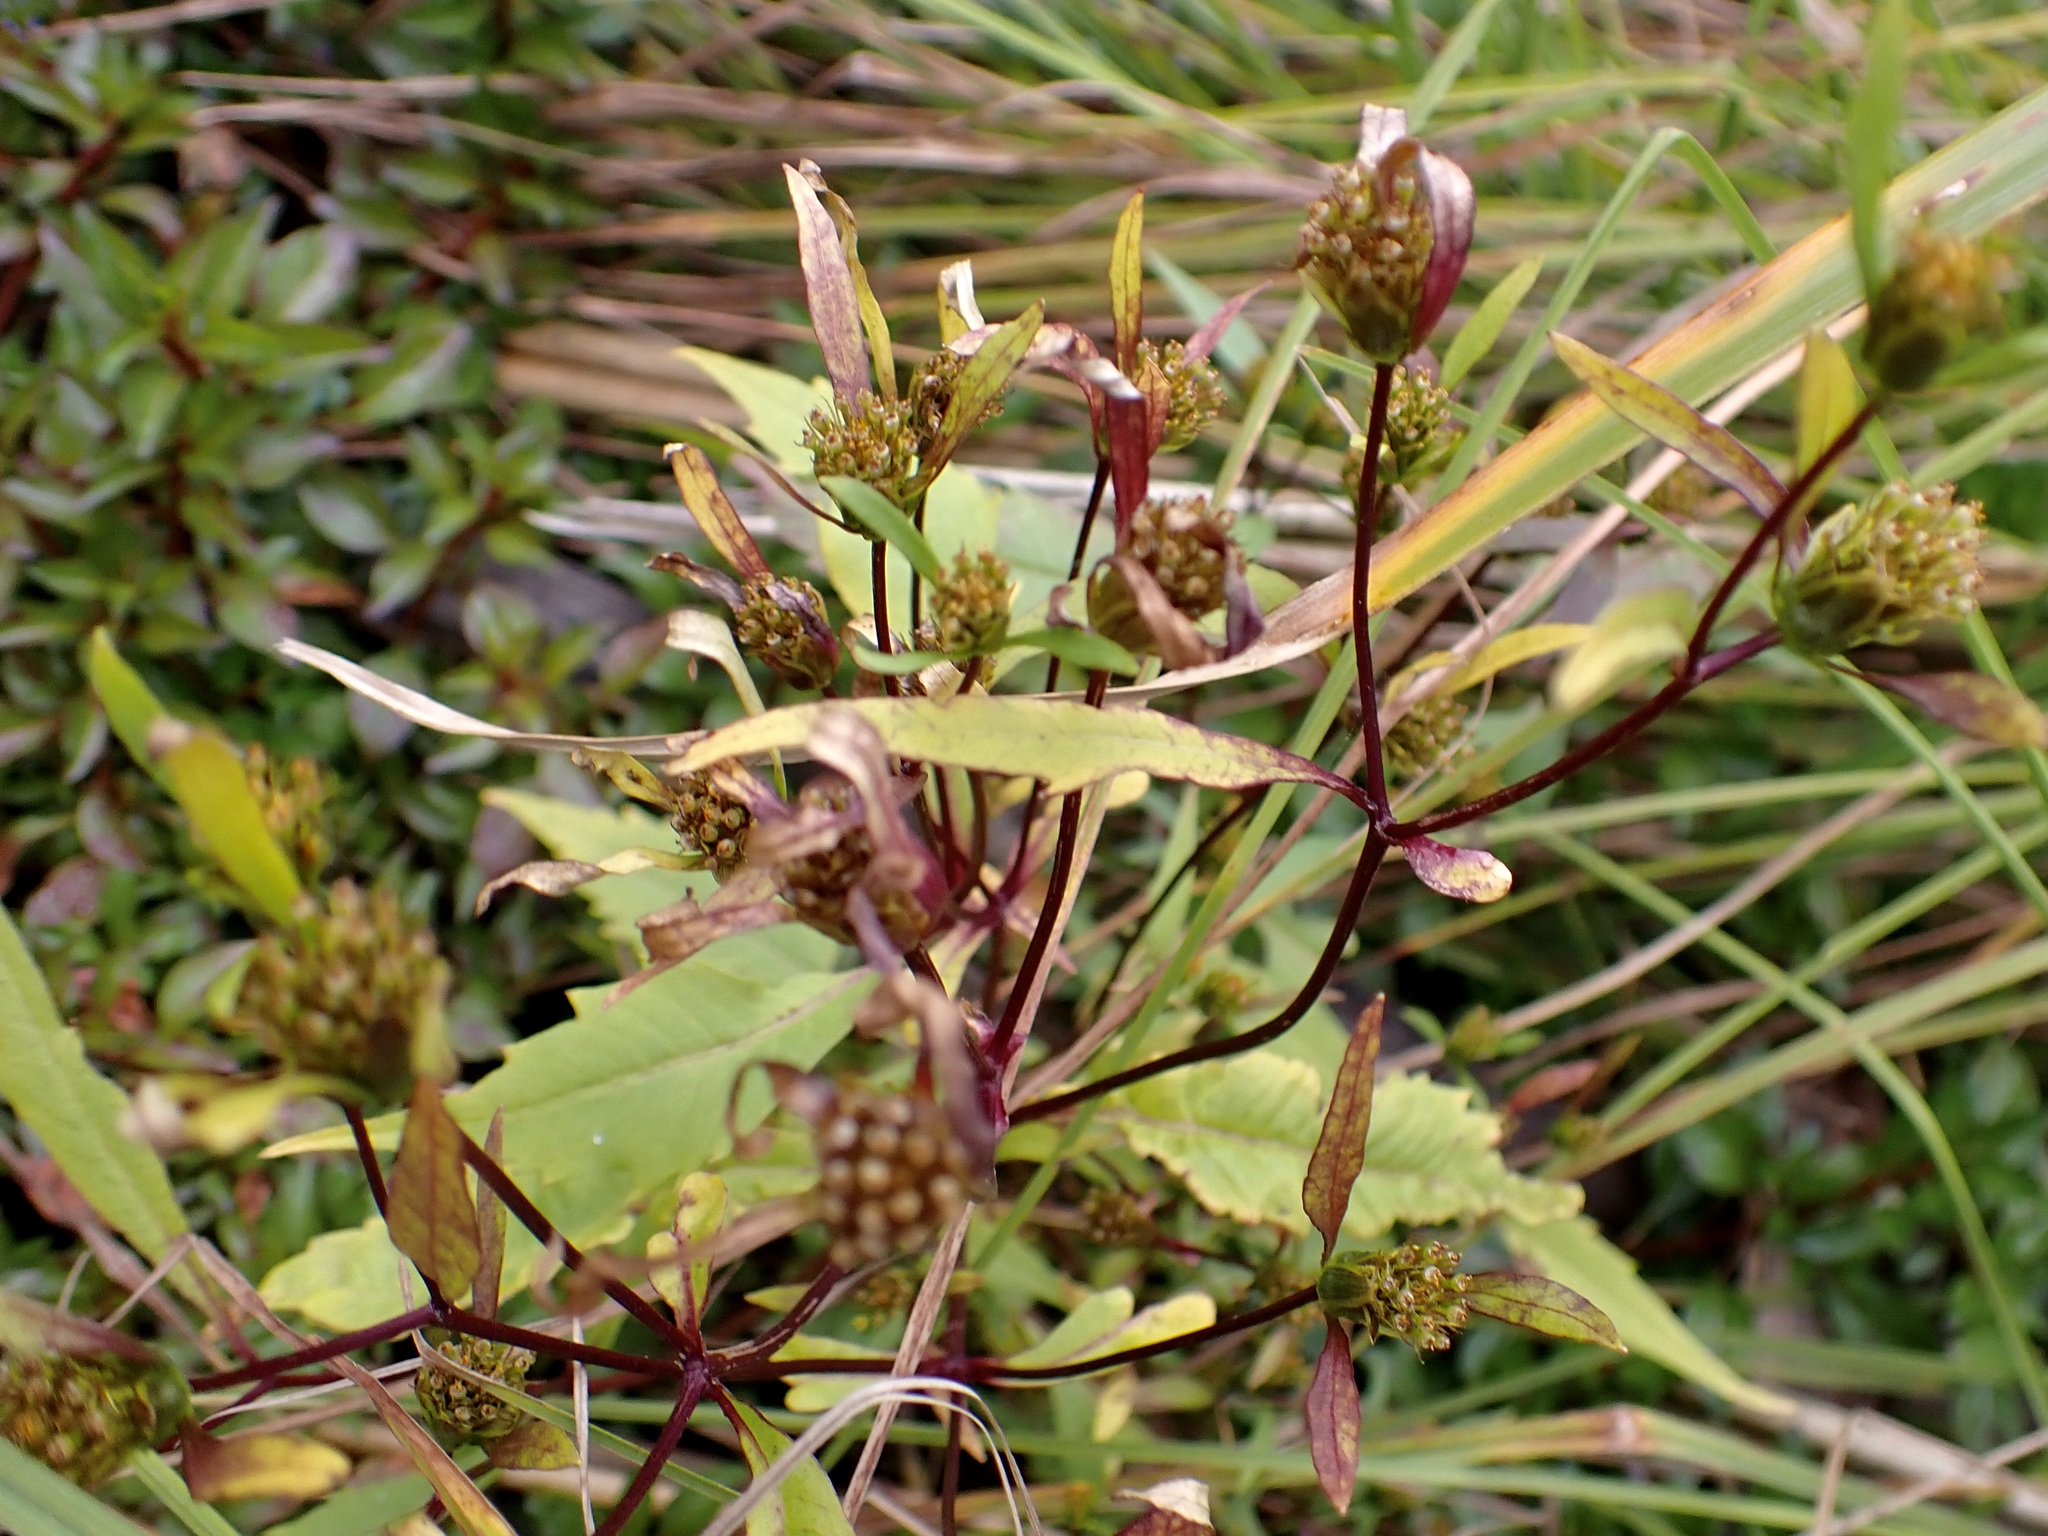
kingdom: Plantae
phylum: Tracheophyta
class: Magnoliopsida
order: Asterales
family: Asteraceae
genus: Bidens
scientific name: Bidens frondosa
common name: Beggarticks
